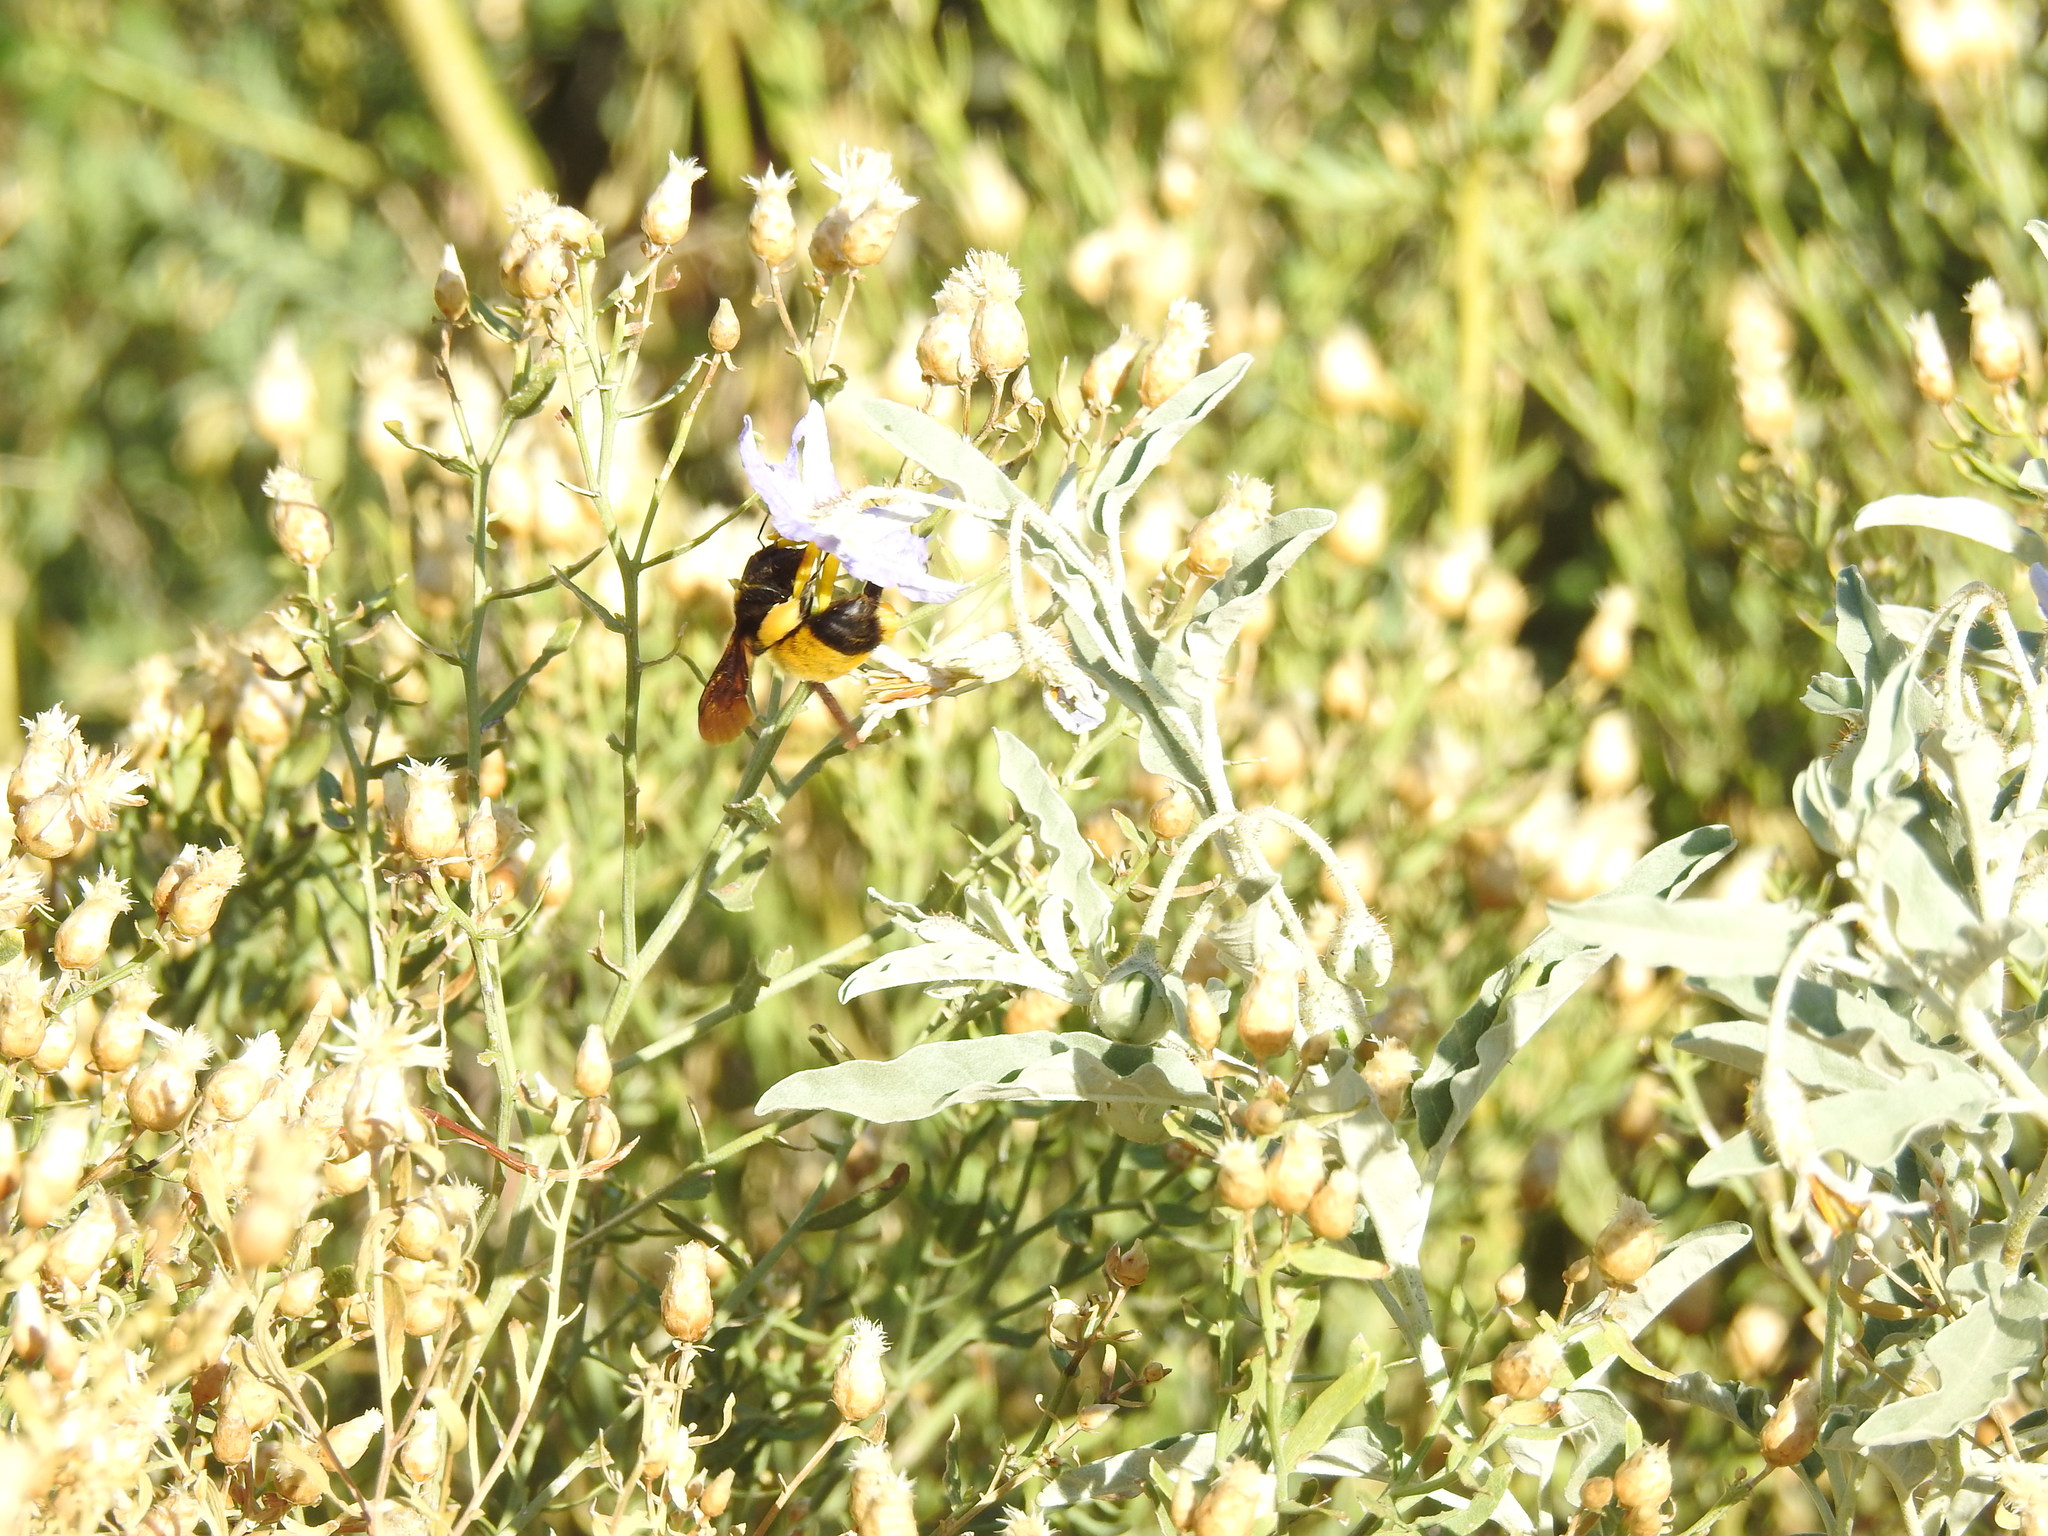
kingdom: Animalia
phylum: Arthropoda
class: Insecta
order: Hymenoptera
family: Apidae
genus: Bombus
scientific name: Bombus sonorus
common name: Sonoran bumble bee
